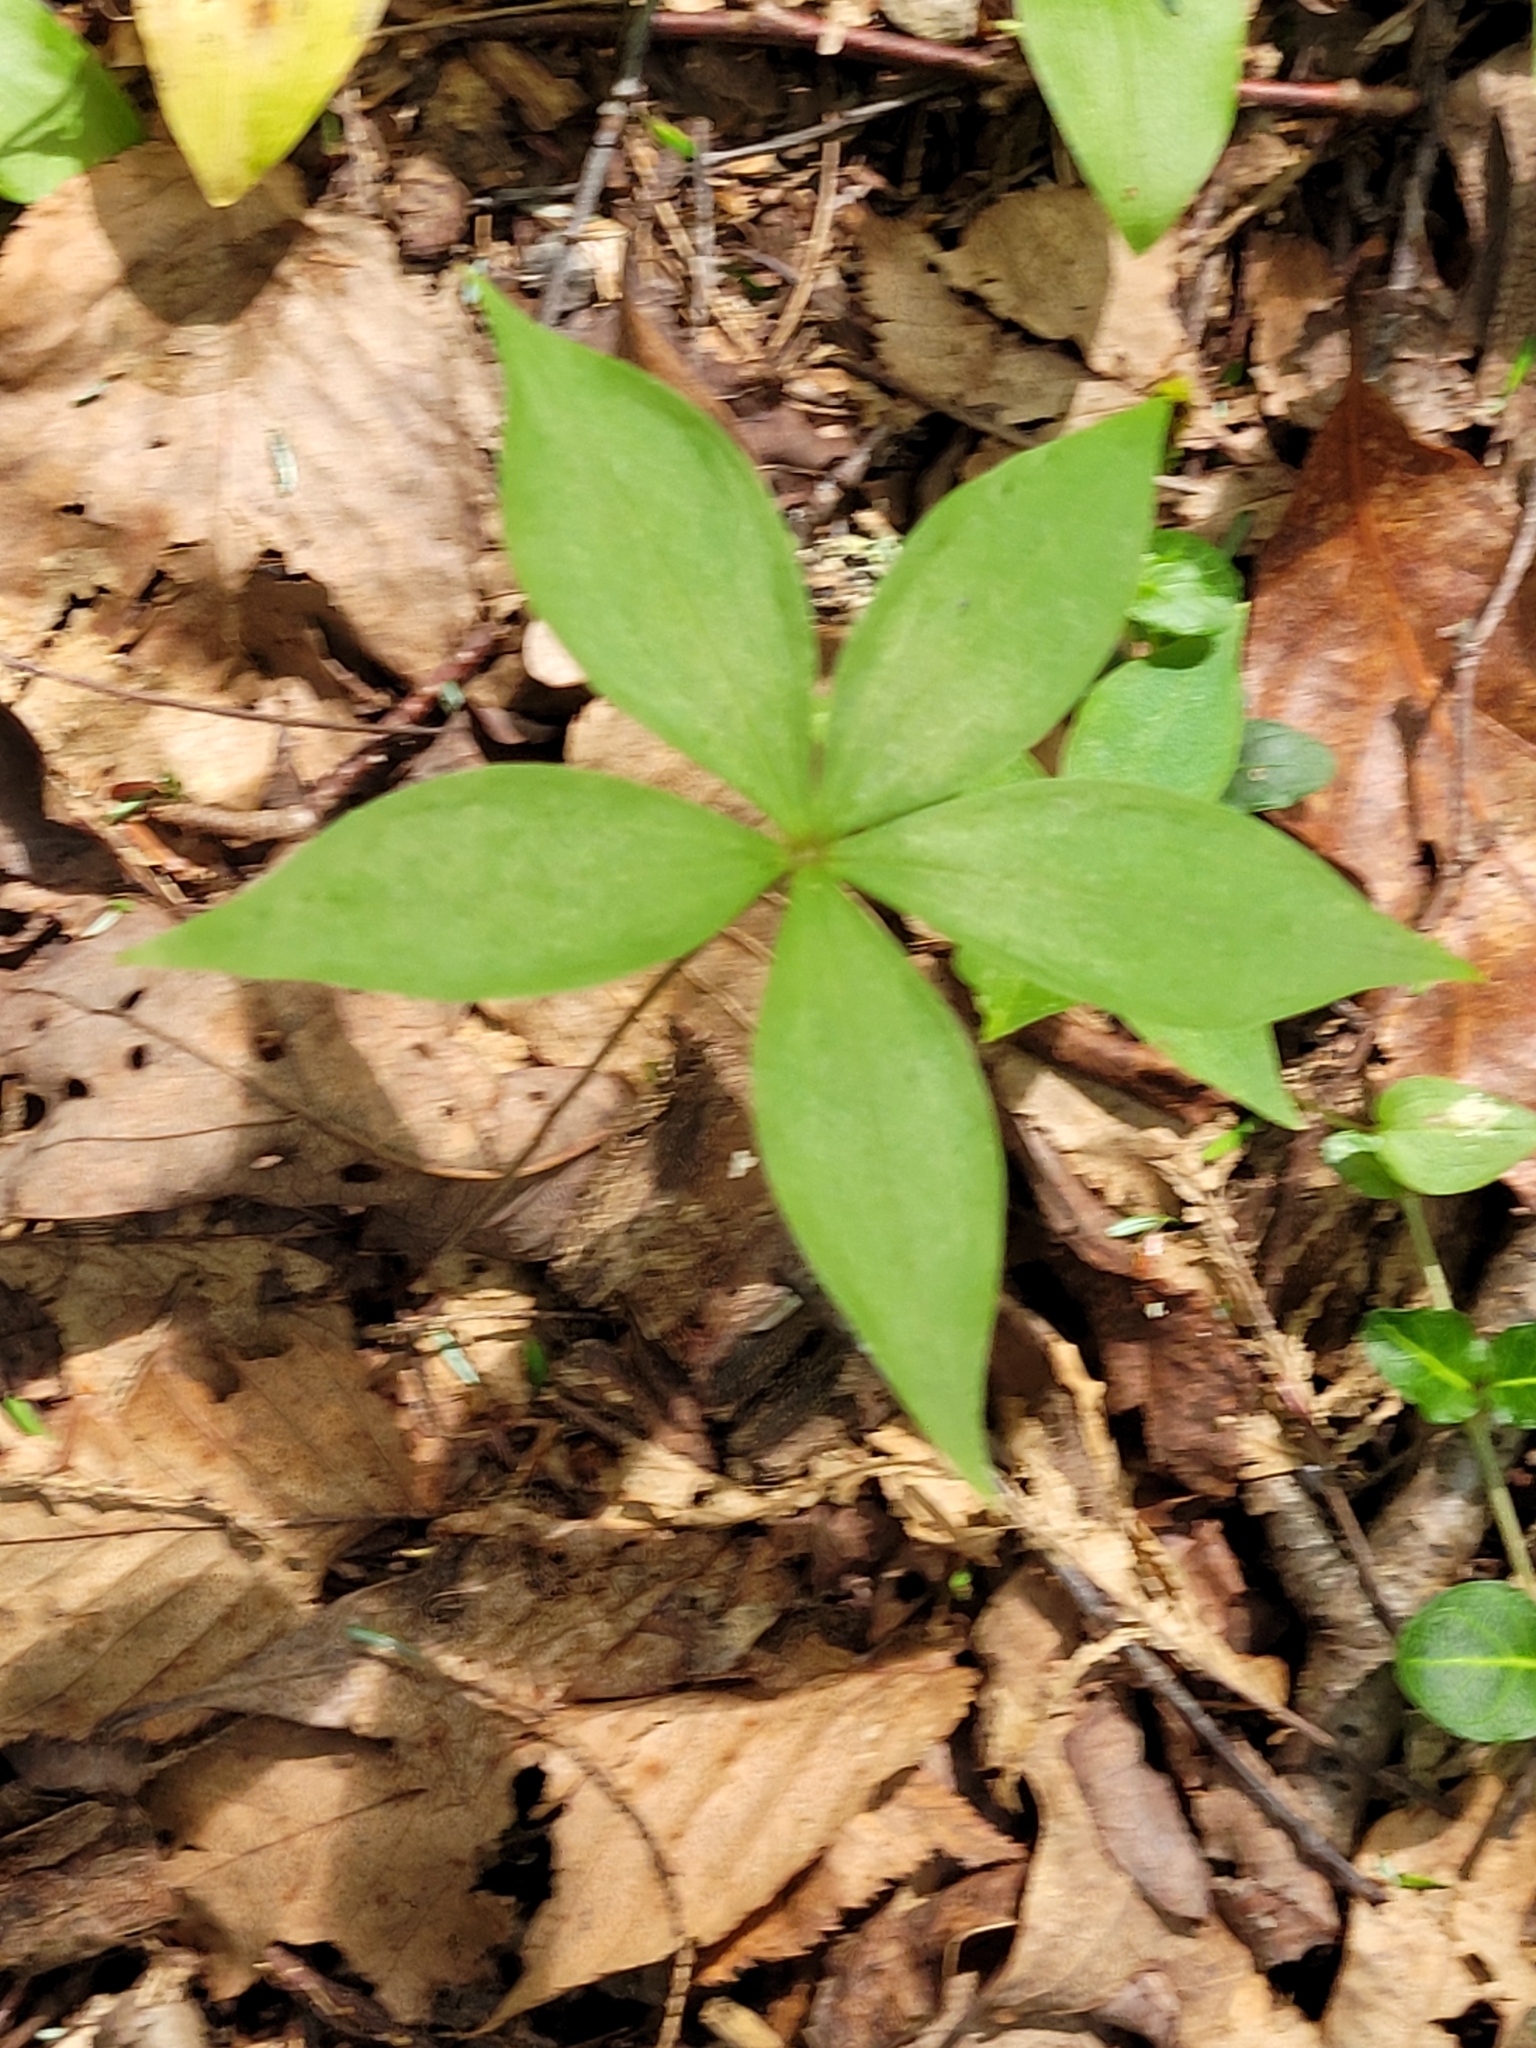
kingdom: Plantae
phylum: Tracheophyta
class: Liliopsida
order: Liliales
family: Liliaceae
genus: Medeola
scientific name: Medeola virginiana
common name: Indian cucumber-root
